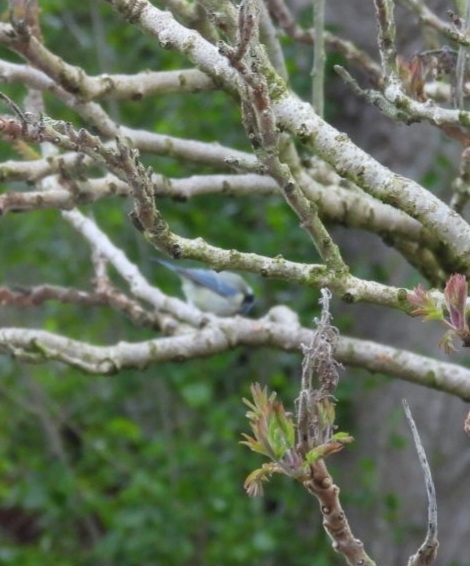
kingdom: Animalia
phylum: Chordata
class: Aves
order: Passeriformes
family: Paridae
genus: Cyanistes
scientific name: Cyanistes caeruleus
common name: Eurasian blue tit
